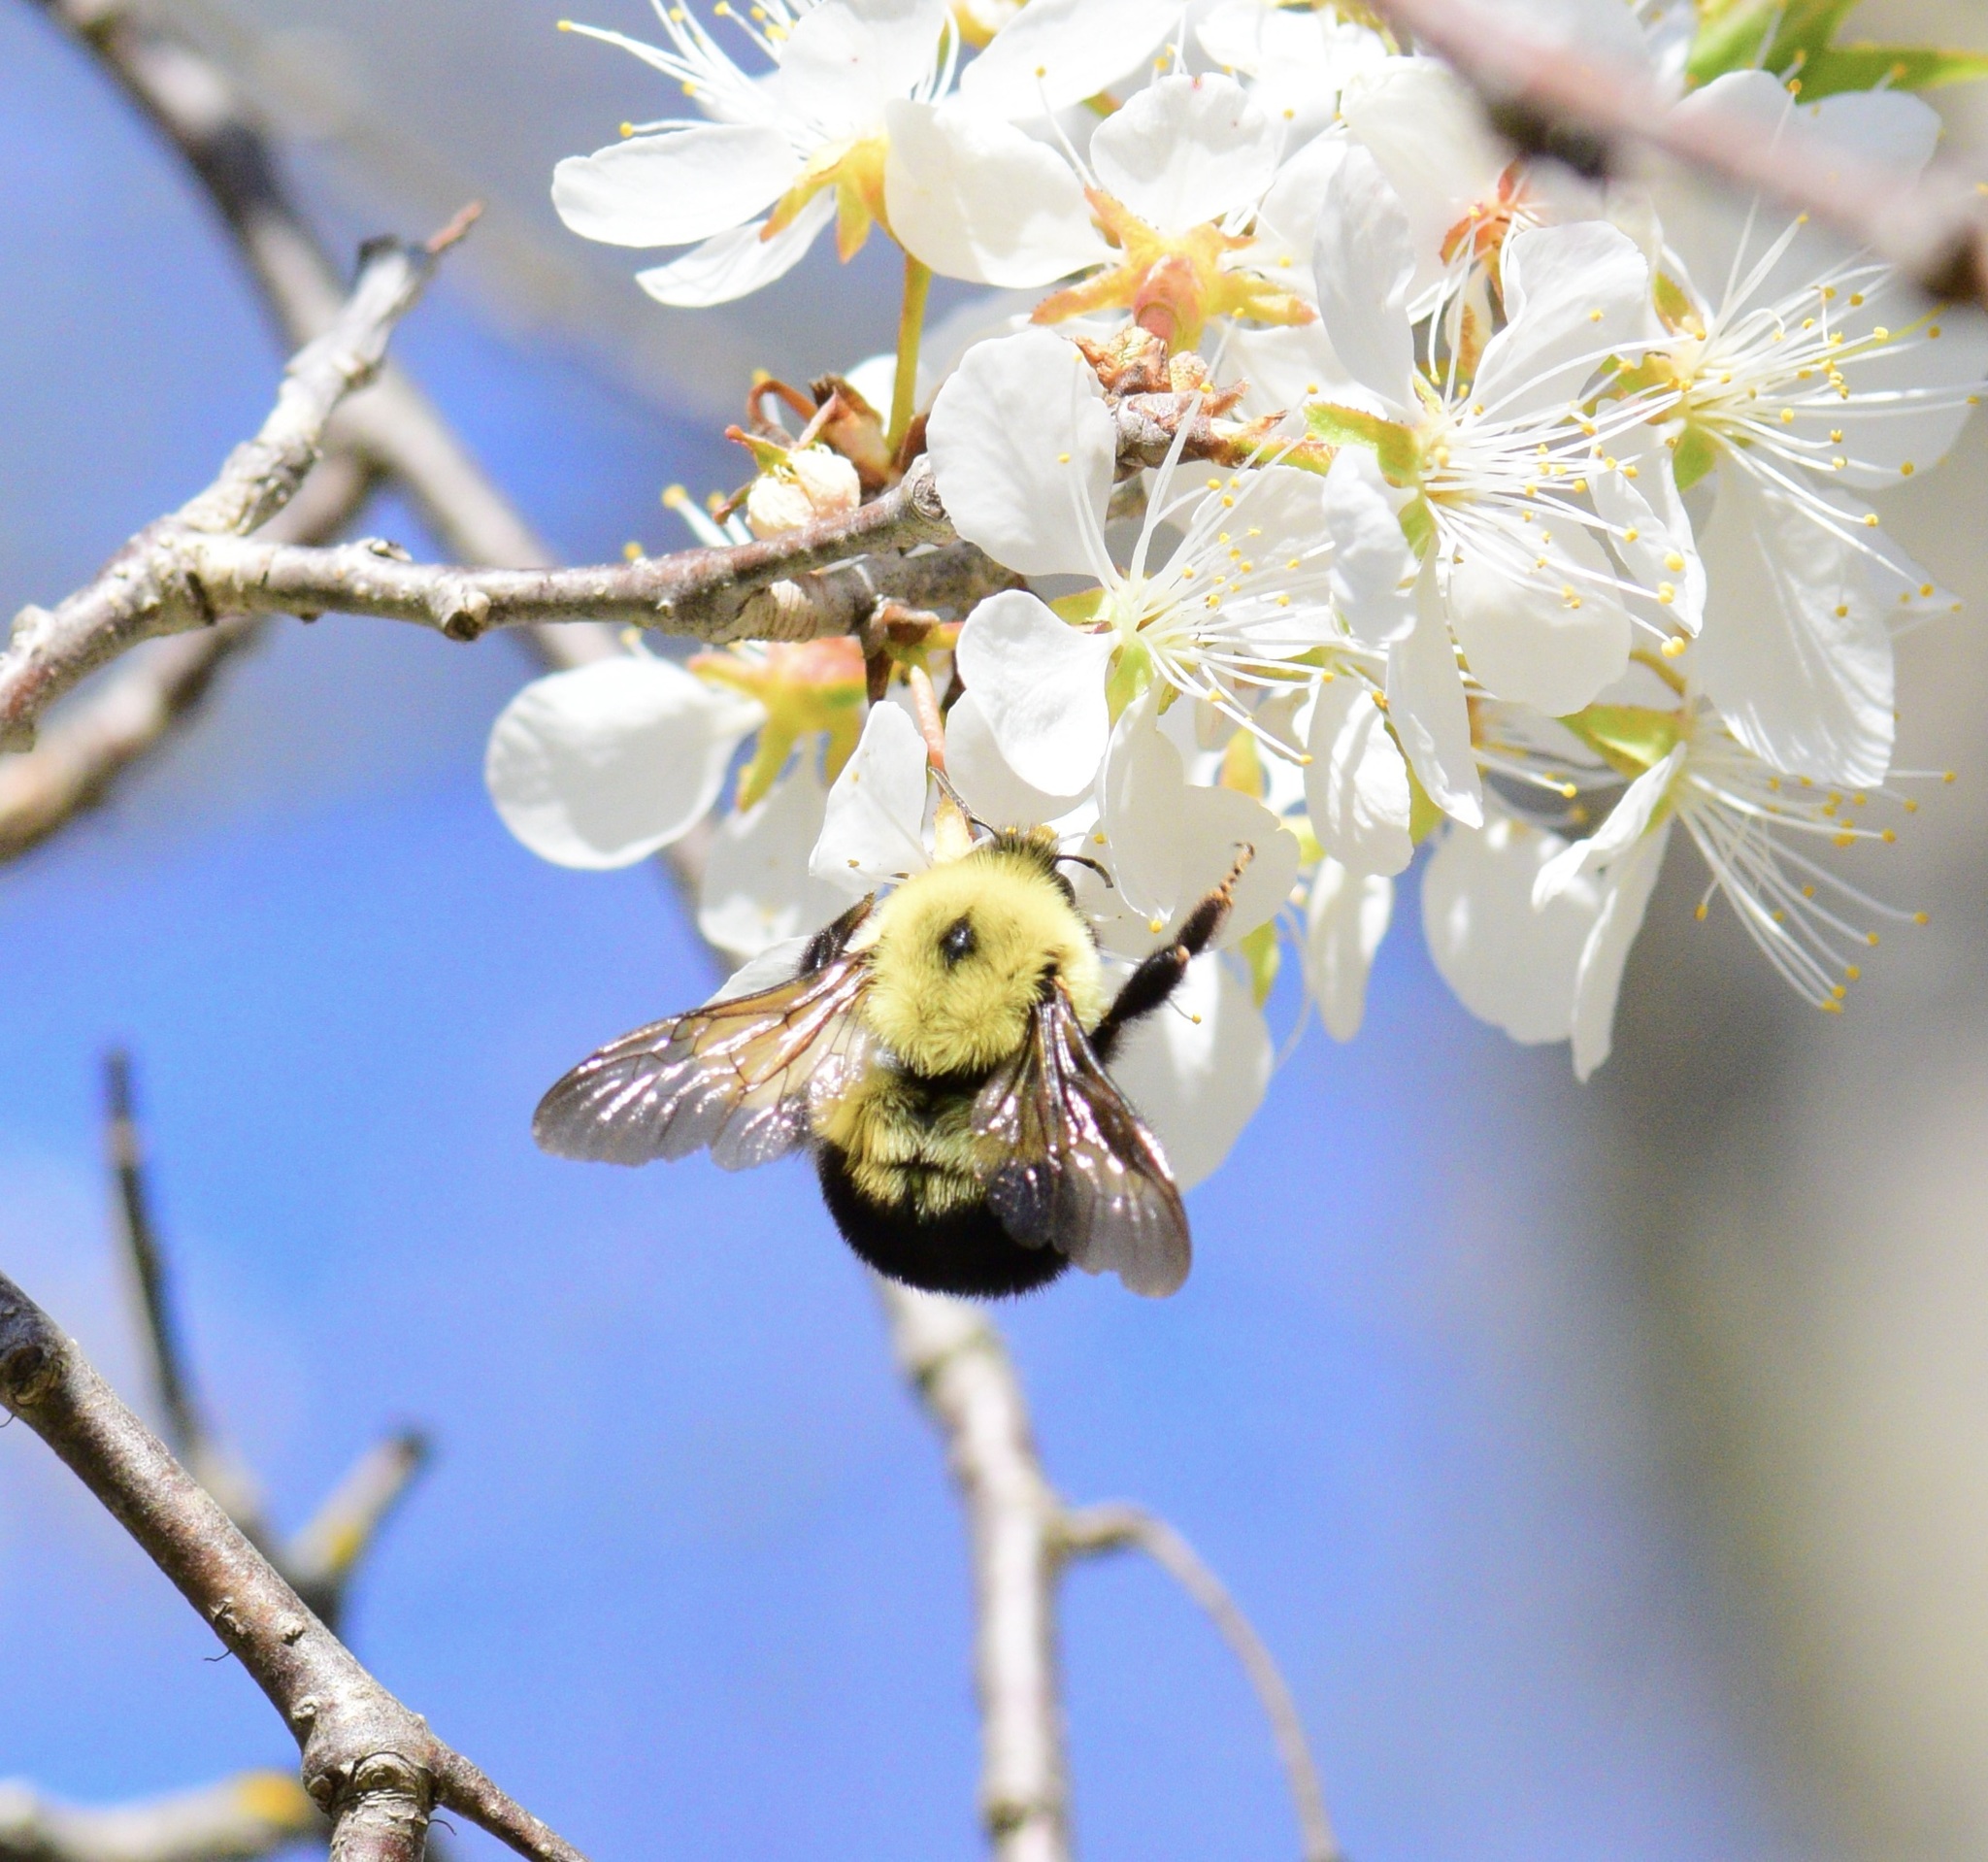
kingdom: Animalia
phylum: Arthropoda
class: Insecta
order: Hymenoptera
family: Apidae
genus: Bombus
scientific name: Bombus bimaculatus
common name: Two-spotted bumble bee
